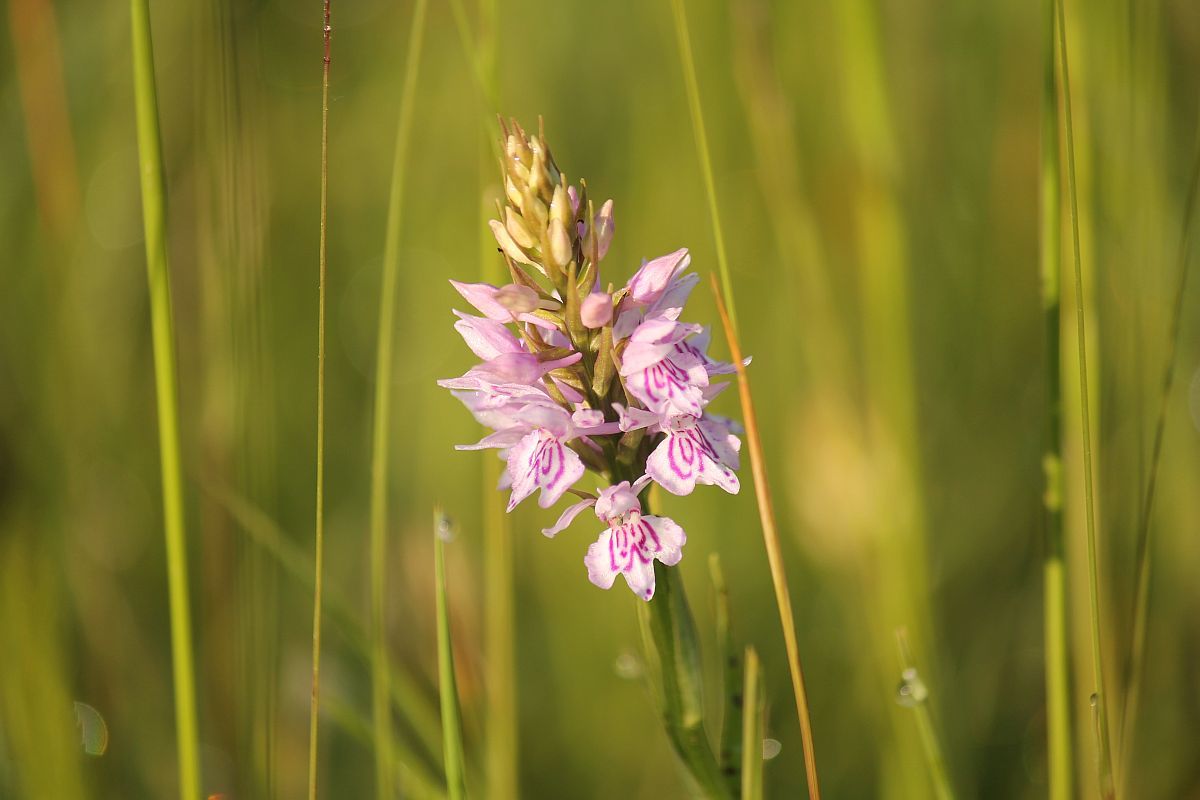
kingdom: Plantae
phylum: Tracheophyta
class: Liliopsida
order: Asparagales
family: Orchidaceae
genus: Dactylorhiza
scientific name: Dactylorhiza maculata
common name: Heath spotted-orchid
